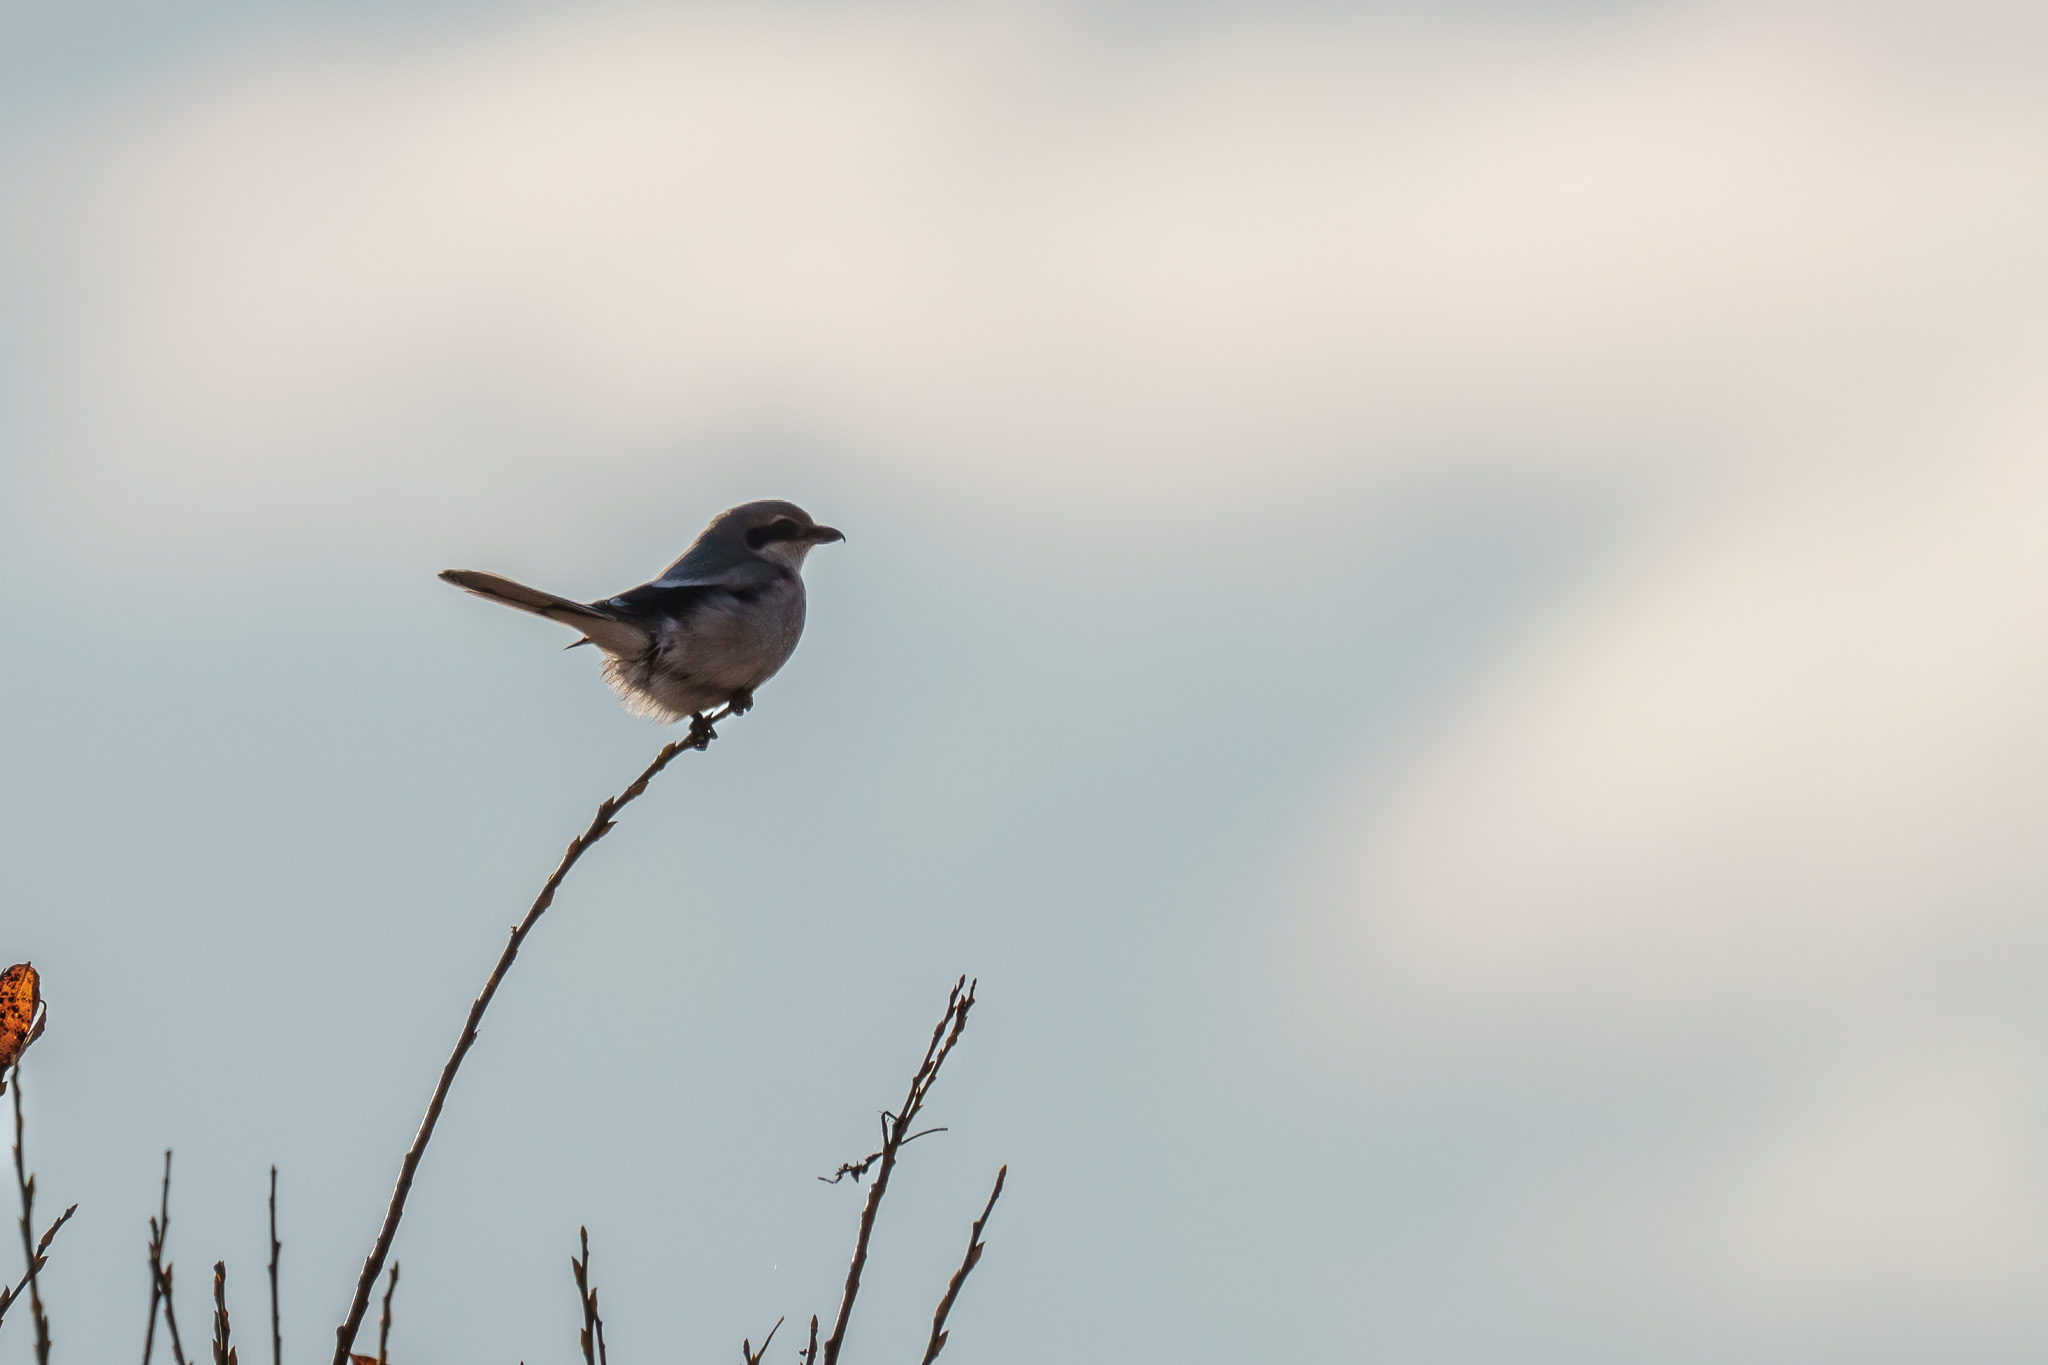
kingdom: Animalia
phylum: Chordata
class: Aves
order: Passeriformes
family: Laniidae
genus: Lanius
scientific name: Lanius excubitor
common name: Great grey shrike
